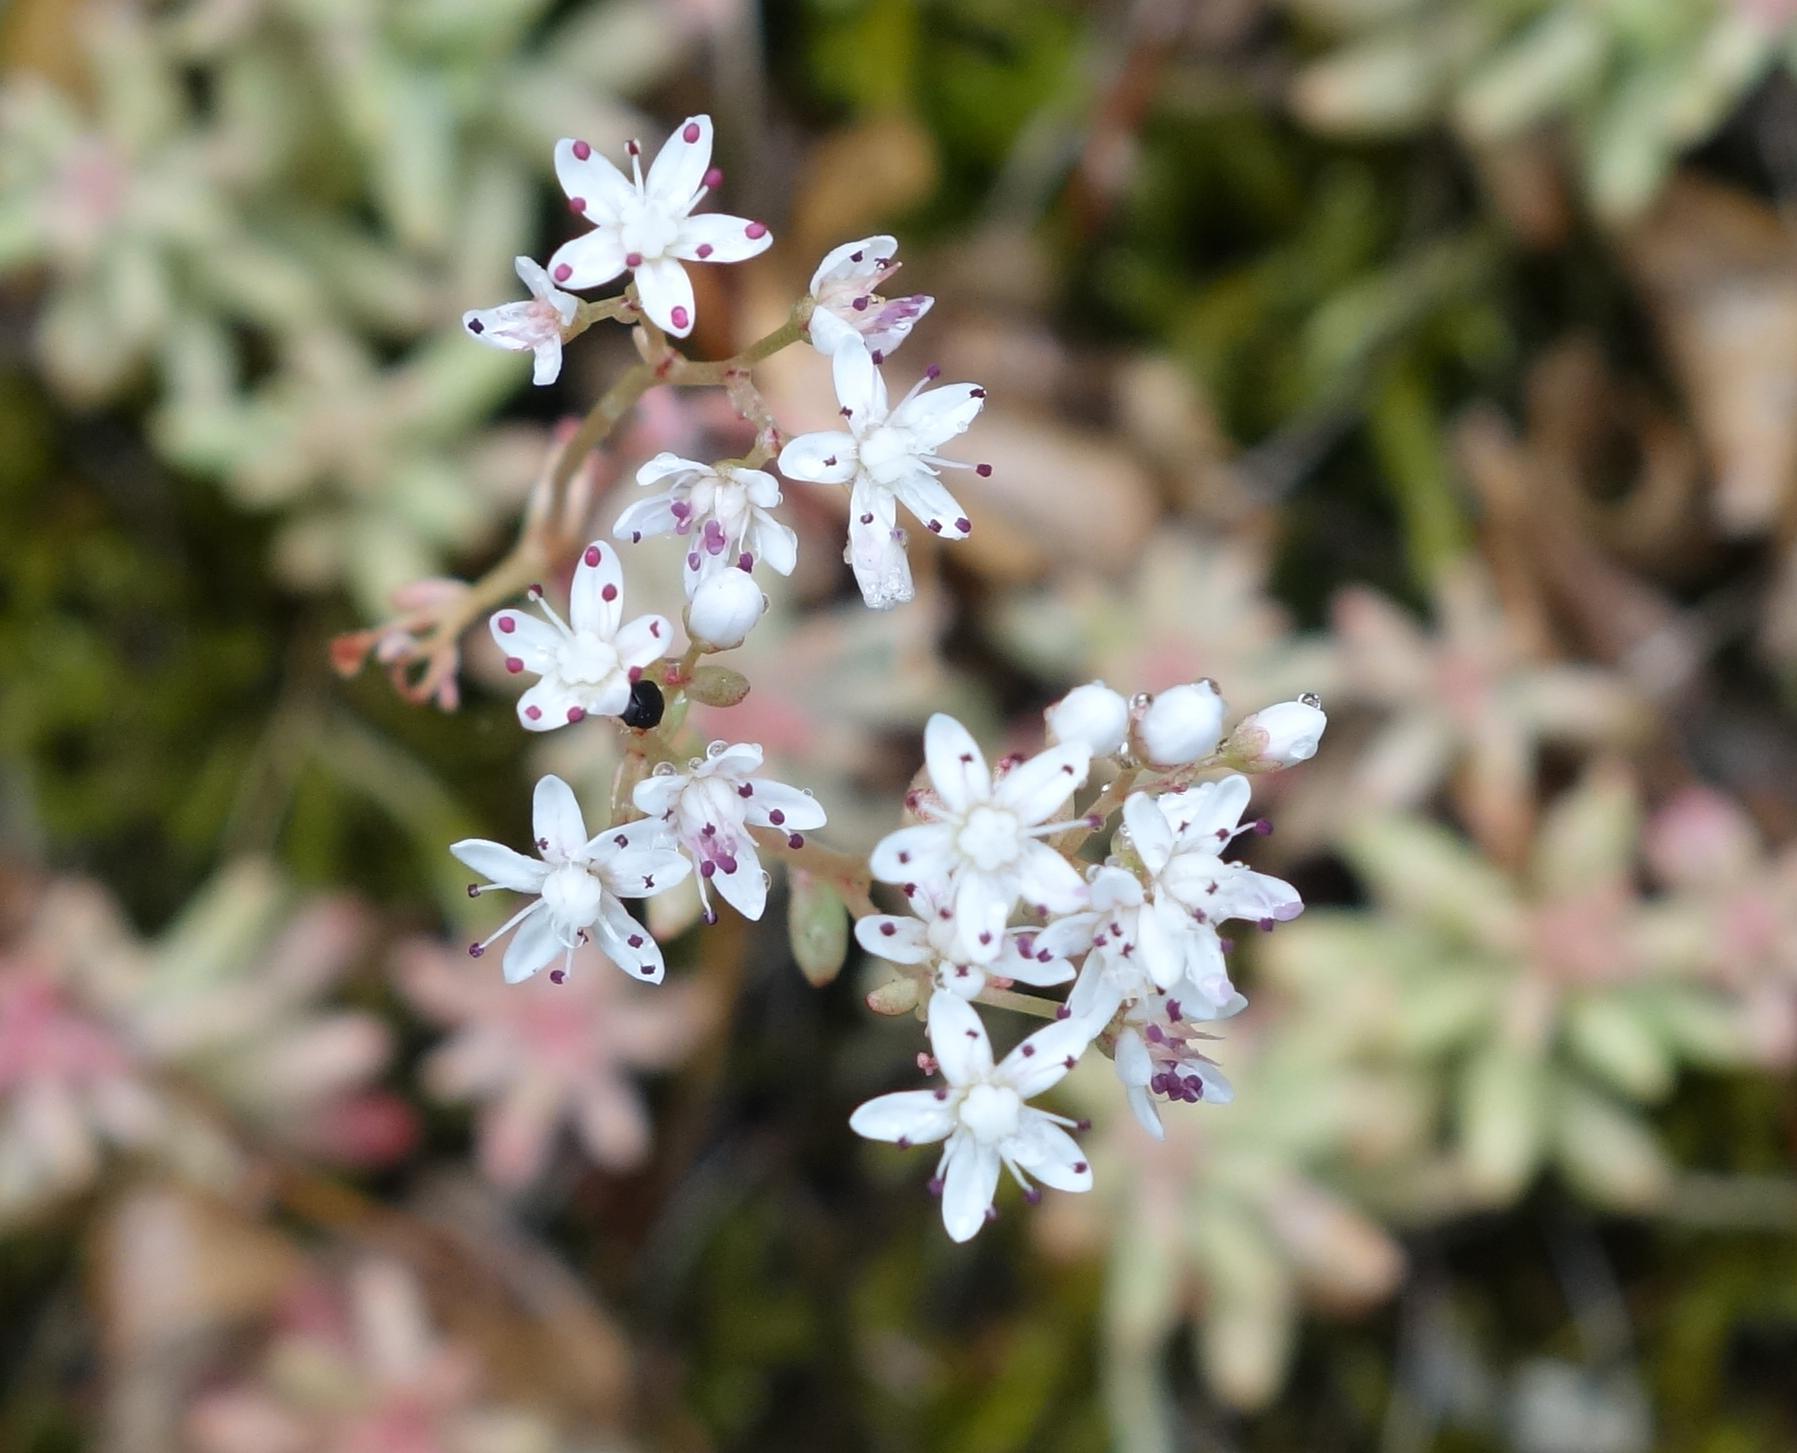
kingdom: Plantae
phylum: Tracheophyta
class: Magnoliopsida
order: Saxifragales
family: Crassulaceae
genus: Sedum
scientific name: Sedum album
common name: White stonecrop
